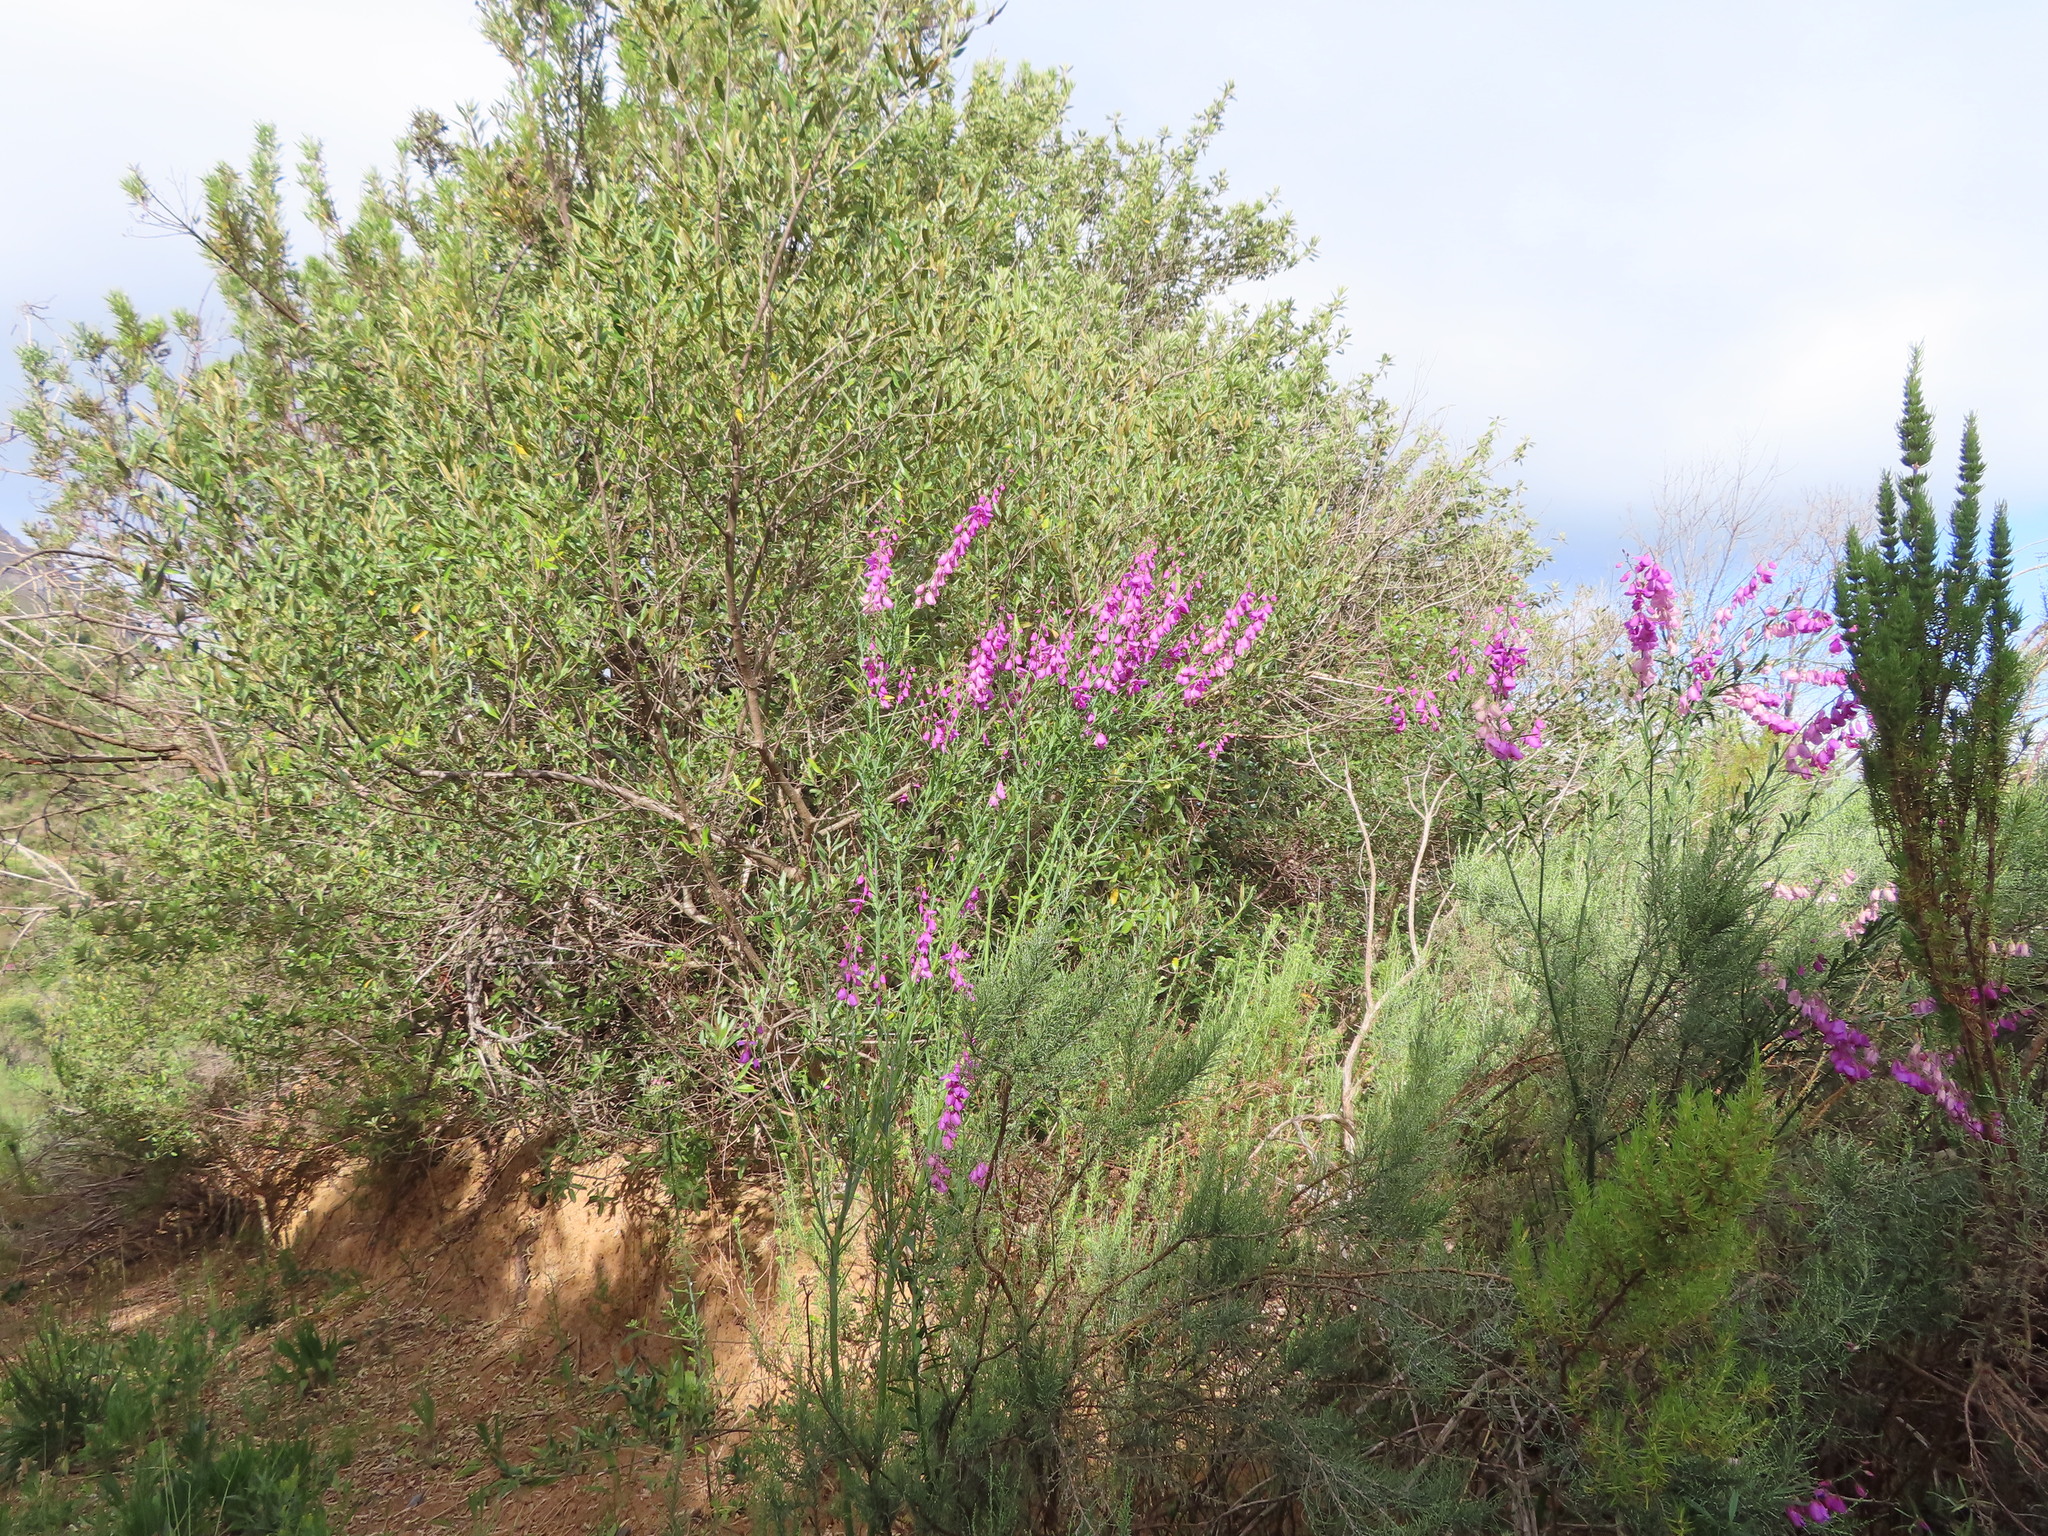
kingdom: Plantae
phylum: Tracheophyta
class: Magnoliopsida
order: Fabales
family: Polygalaceae
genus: Polygala
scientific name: Polygala virgata
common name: Milkwort
